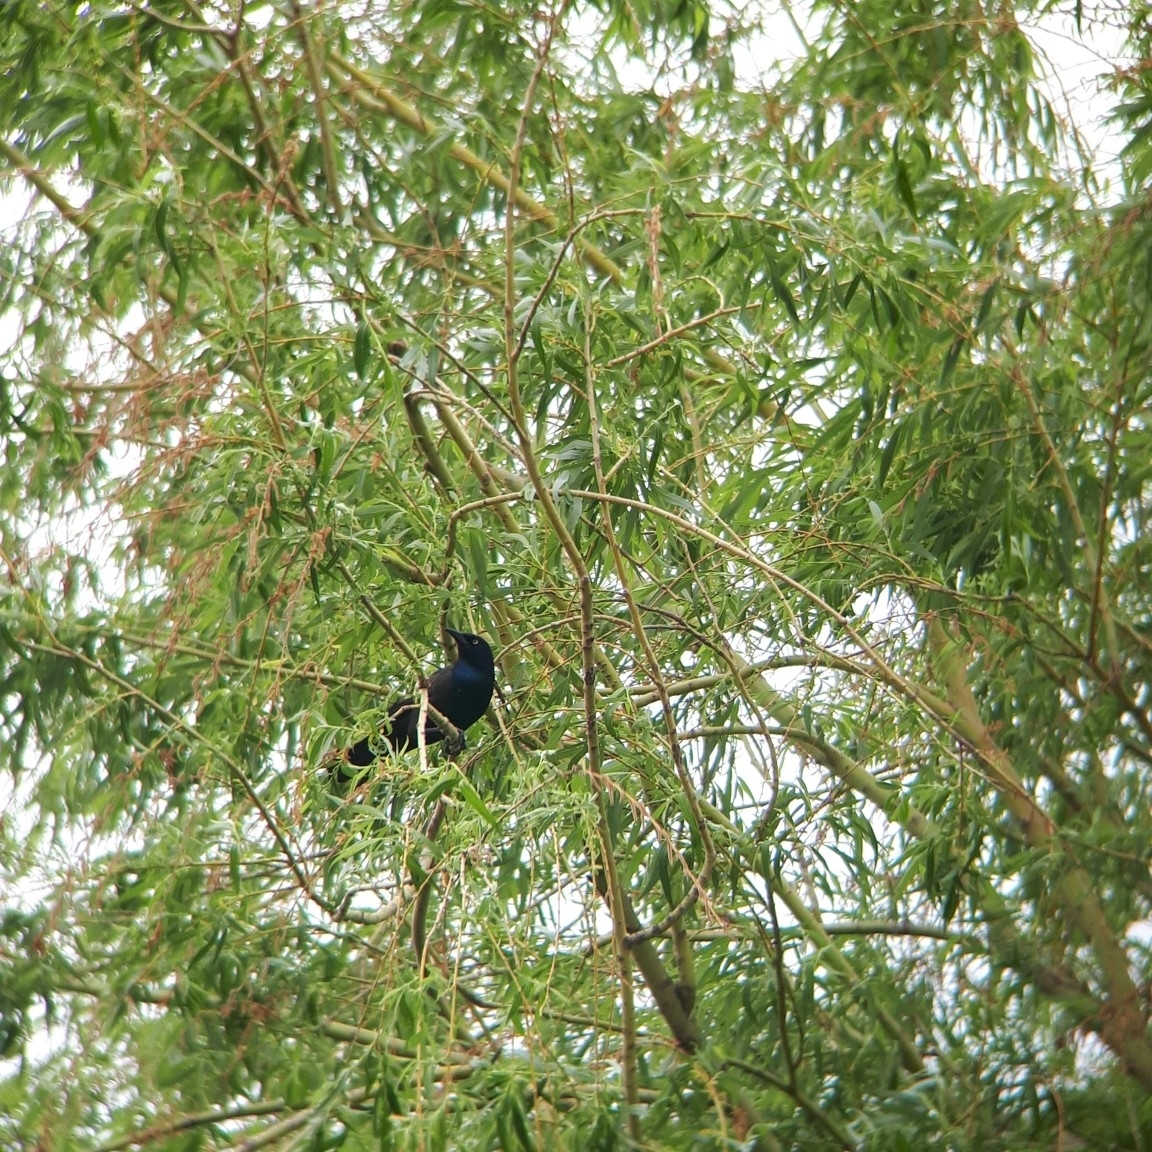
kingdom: Animalia
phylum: Chordata
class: Aves
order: Passeriformes
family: Icteridae
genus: Quiscalus
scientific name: Quiscalus quiscula
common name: Common grackle
